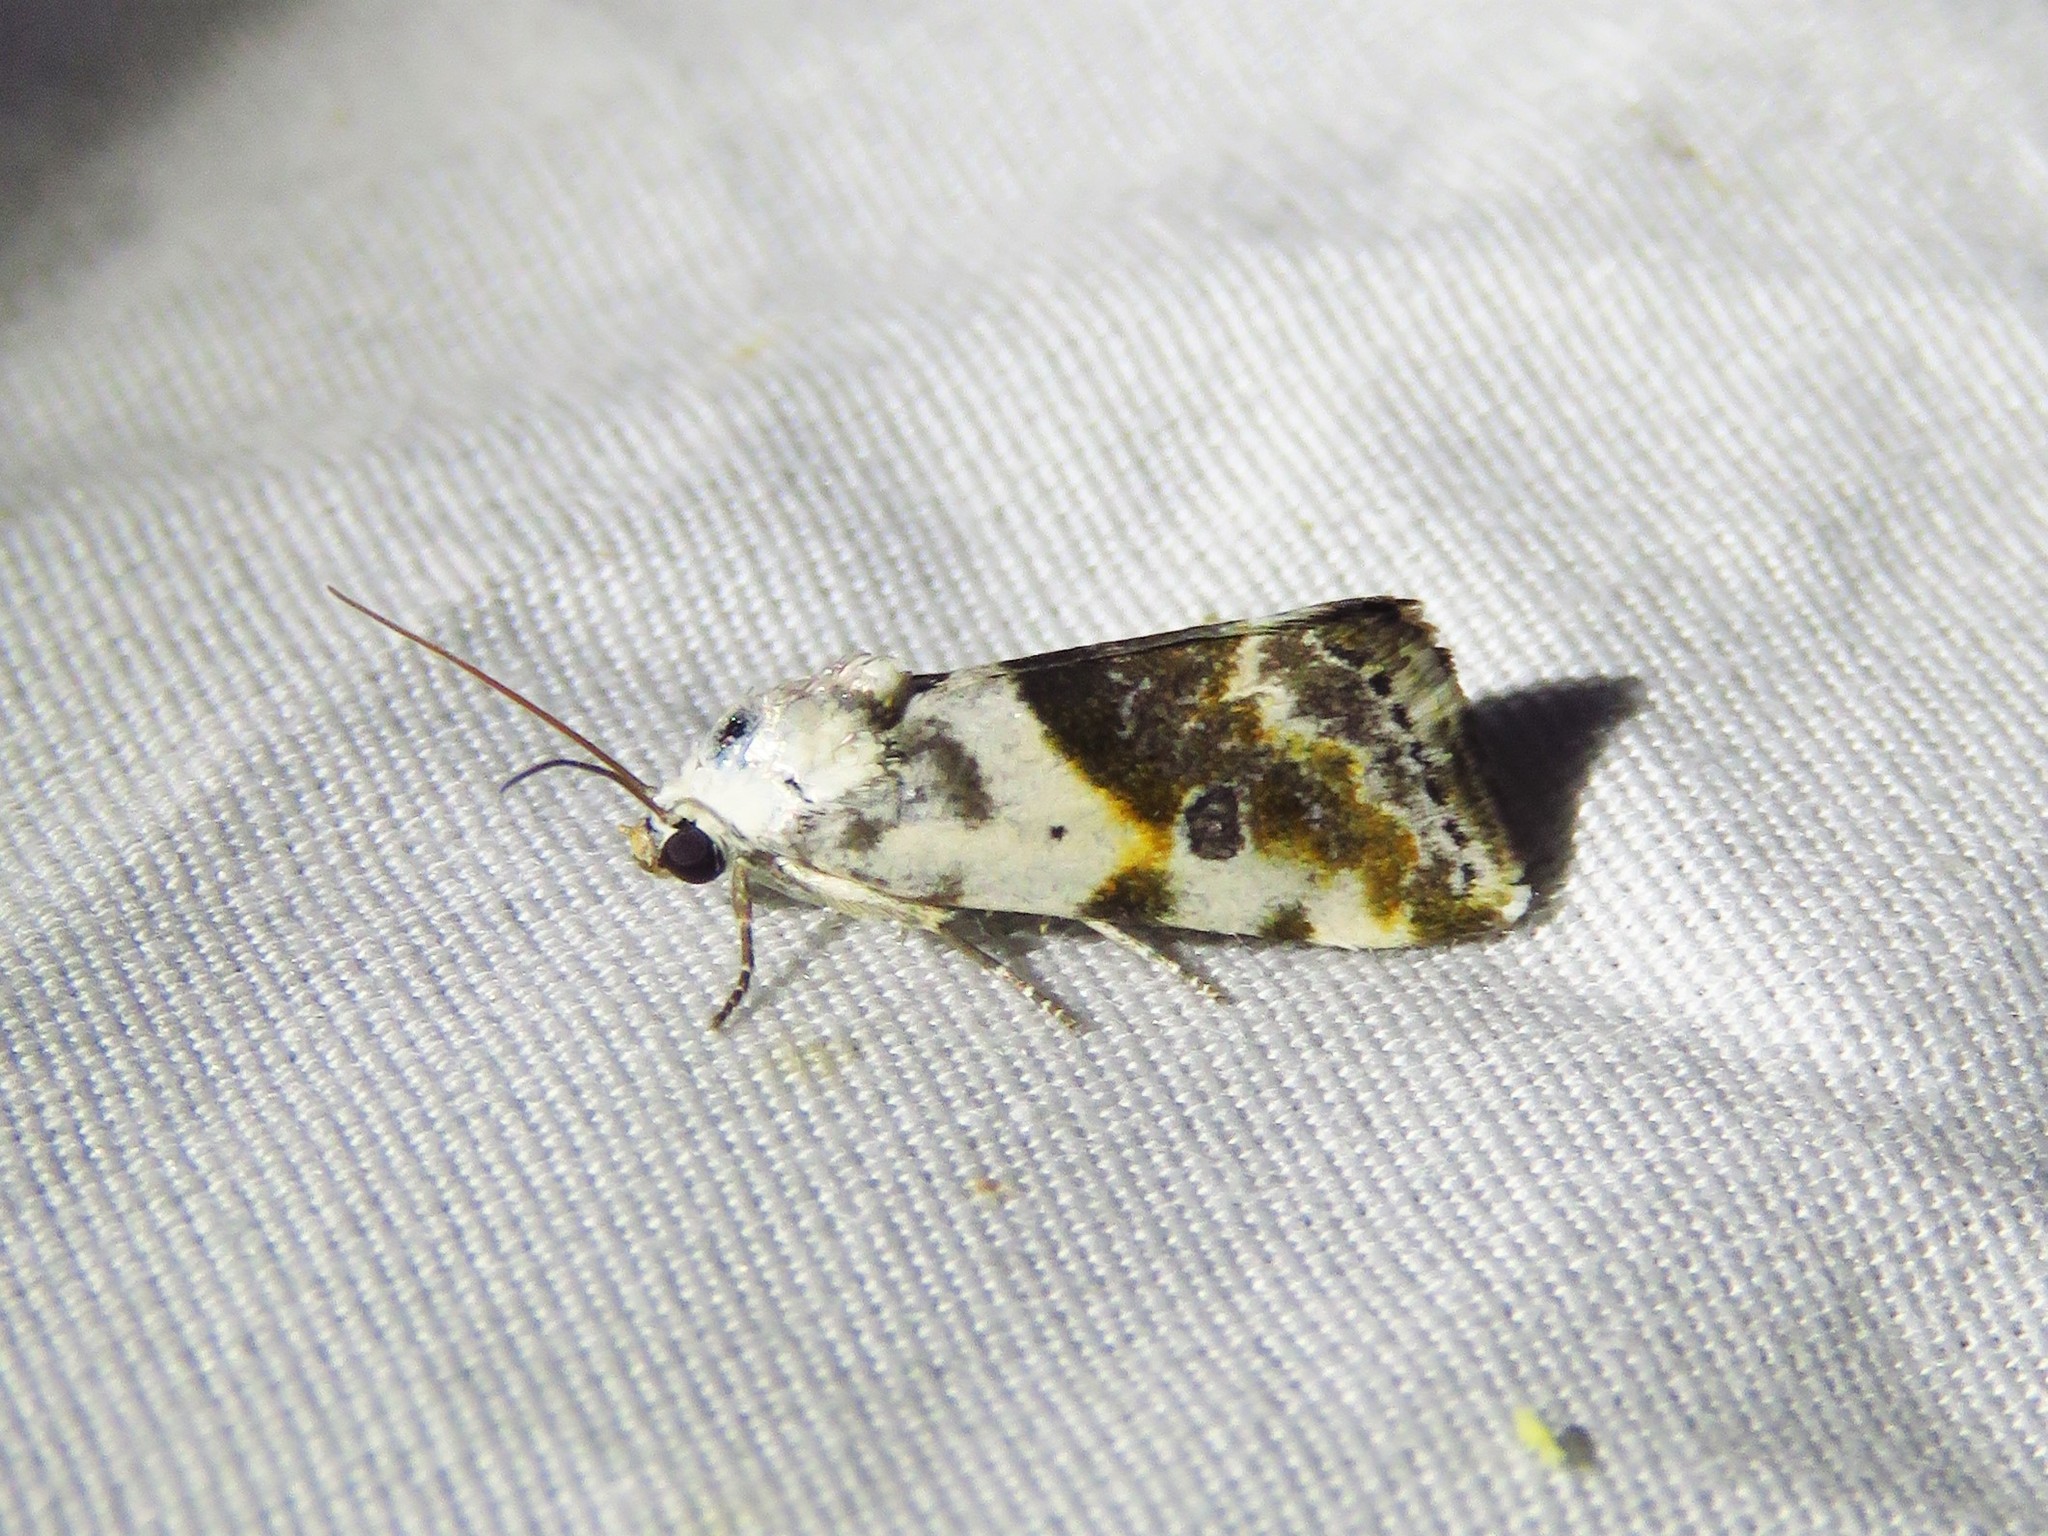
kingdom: Animalia
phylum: Arthropoda
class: Insecta
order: Lepidoptera
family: Noctuidae
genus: Acontia
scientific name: Acontia candefacta
